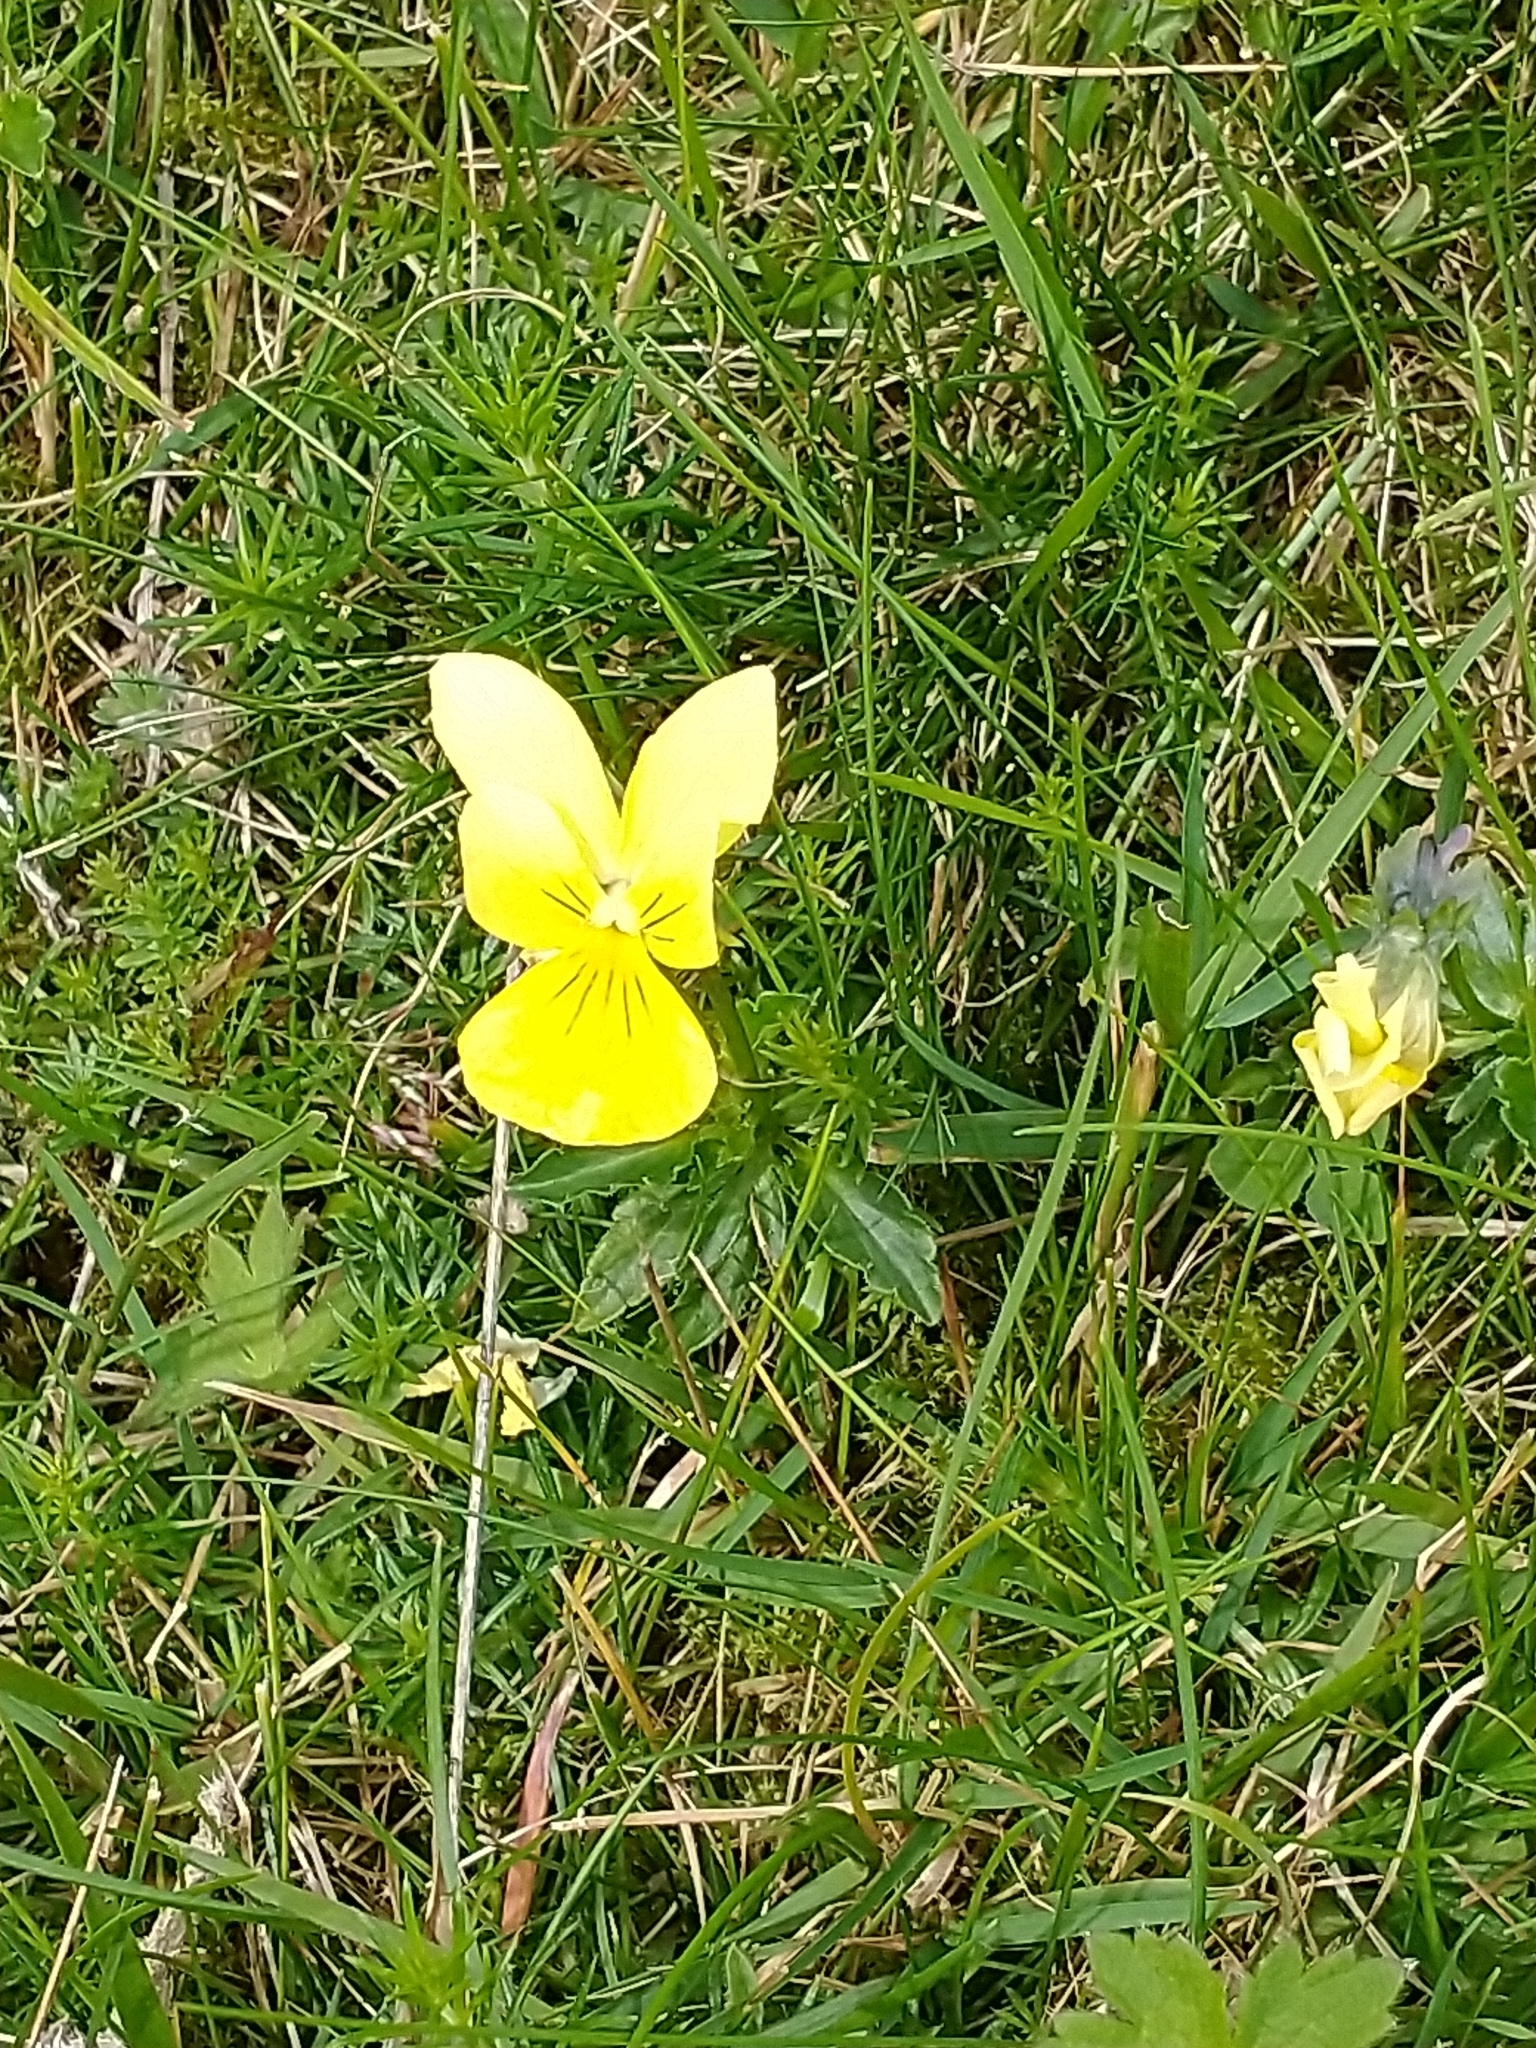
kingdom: Plantae
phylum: Tracheophyta
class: Magnoliopsida
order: Malpighiales
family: Violaceae
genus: Viola
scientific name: Viola lutea
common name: Mountain pansy
